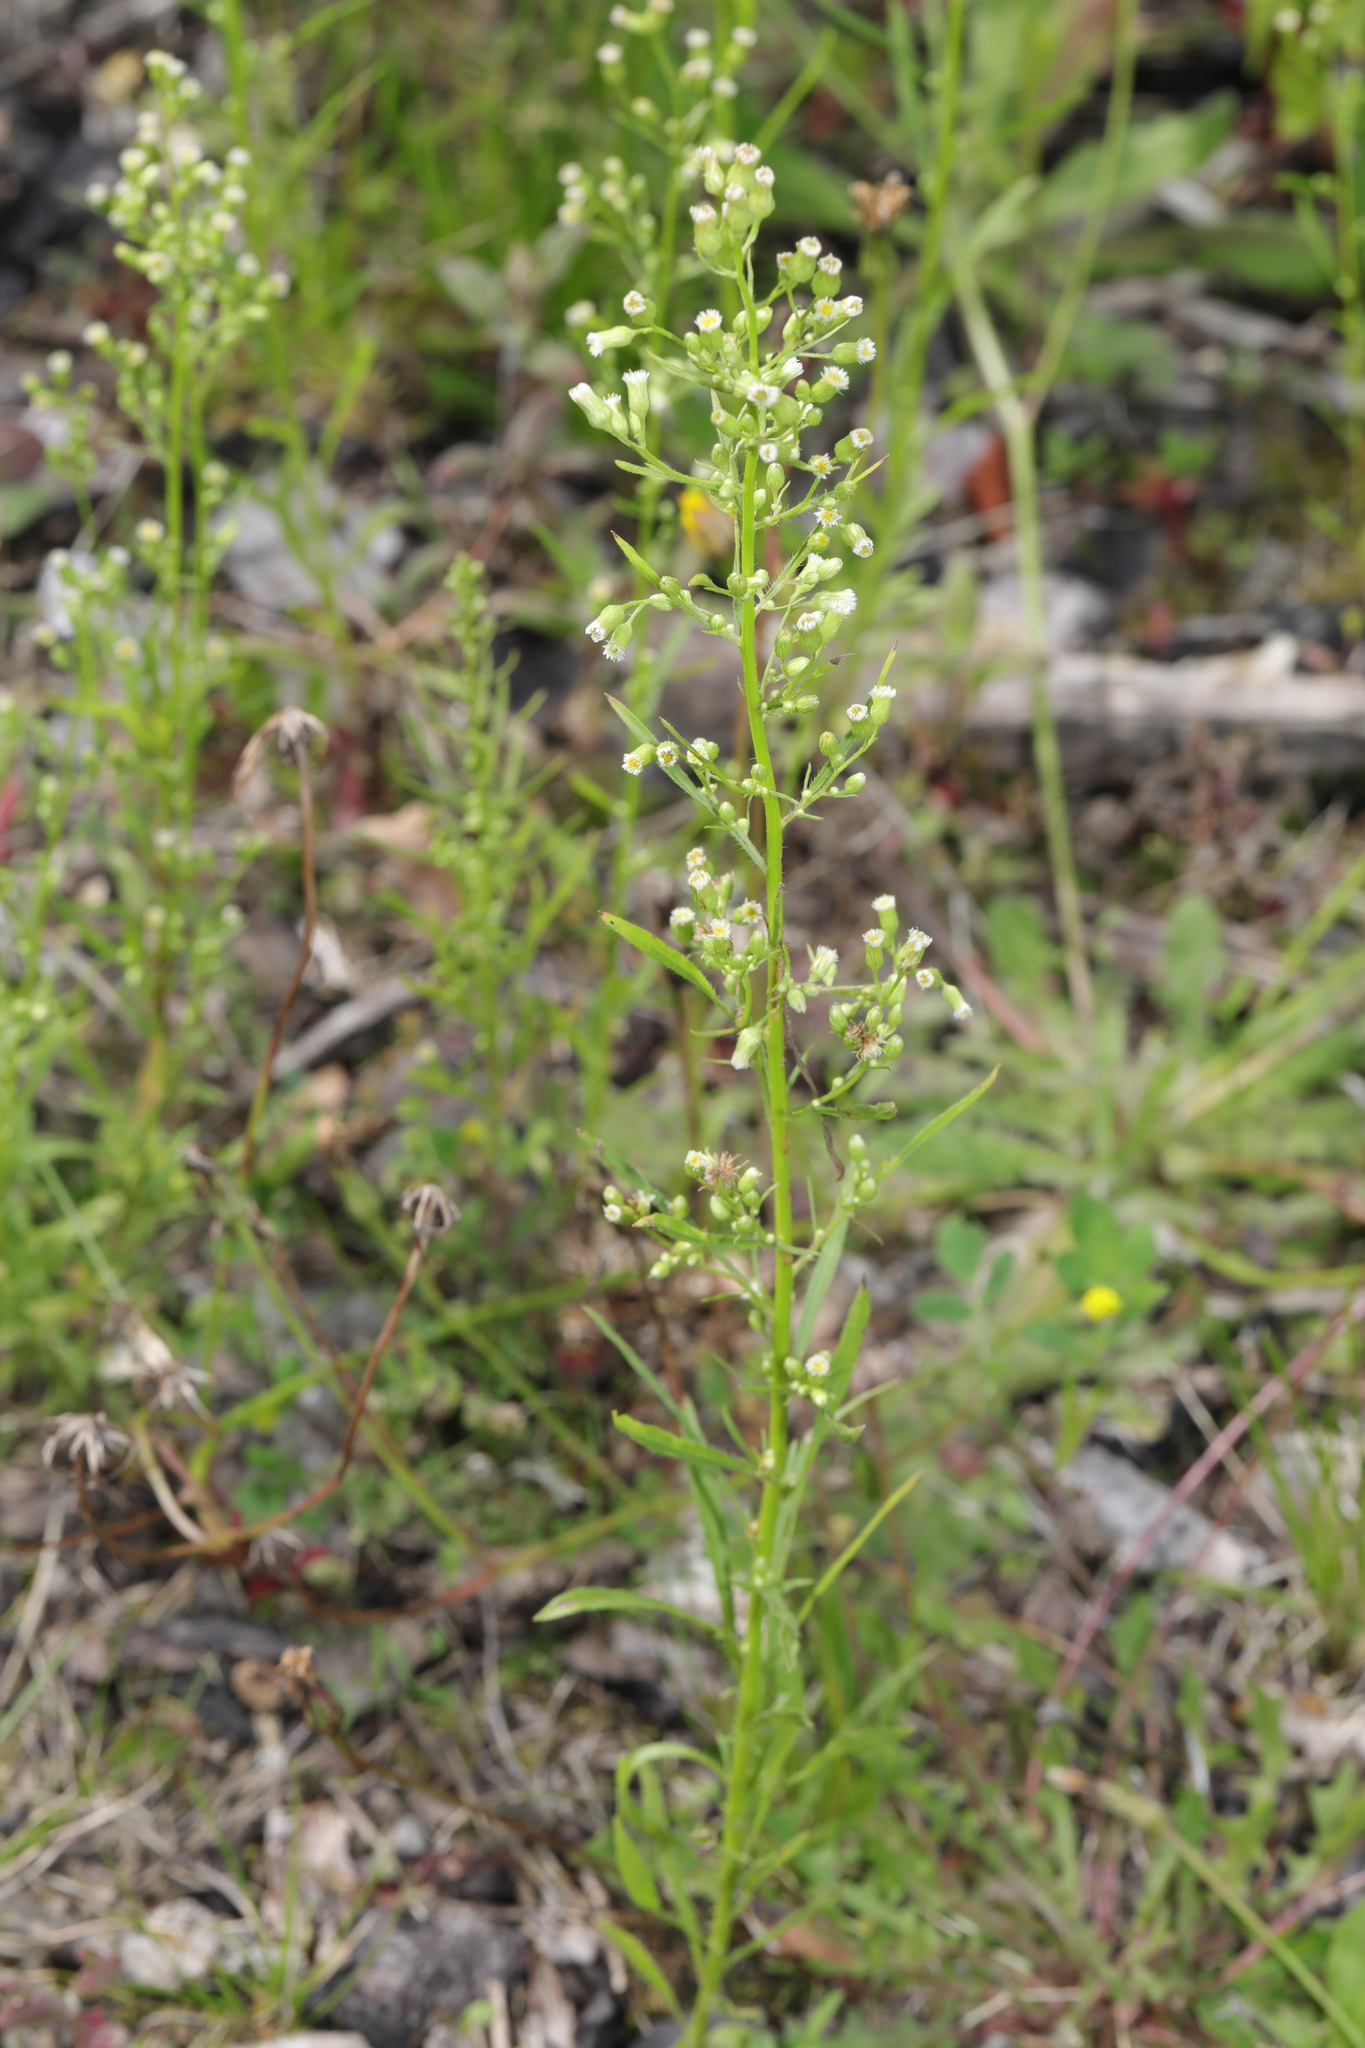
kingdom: Plantae
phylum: Tracheophyta
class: Magnoliopsida
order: Asterales
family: Asteraceae
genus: Erigeron
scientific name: Erigeron canadensis
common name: Canadian fleabane
